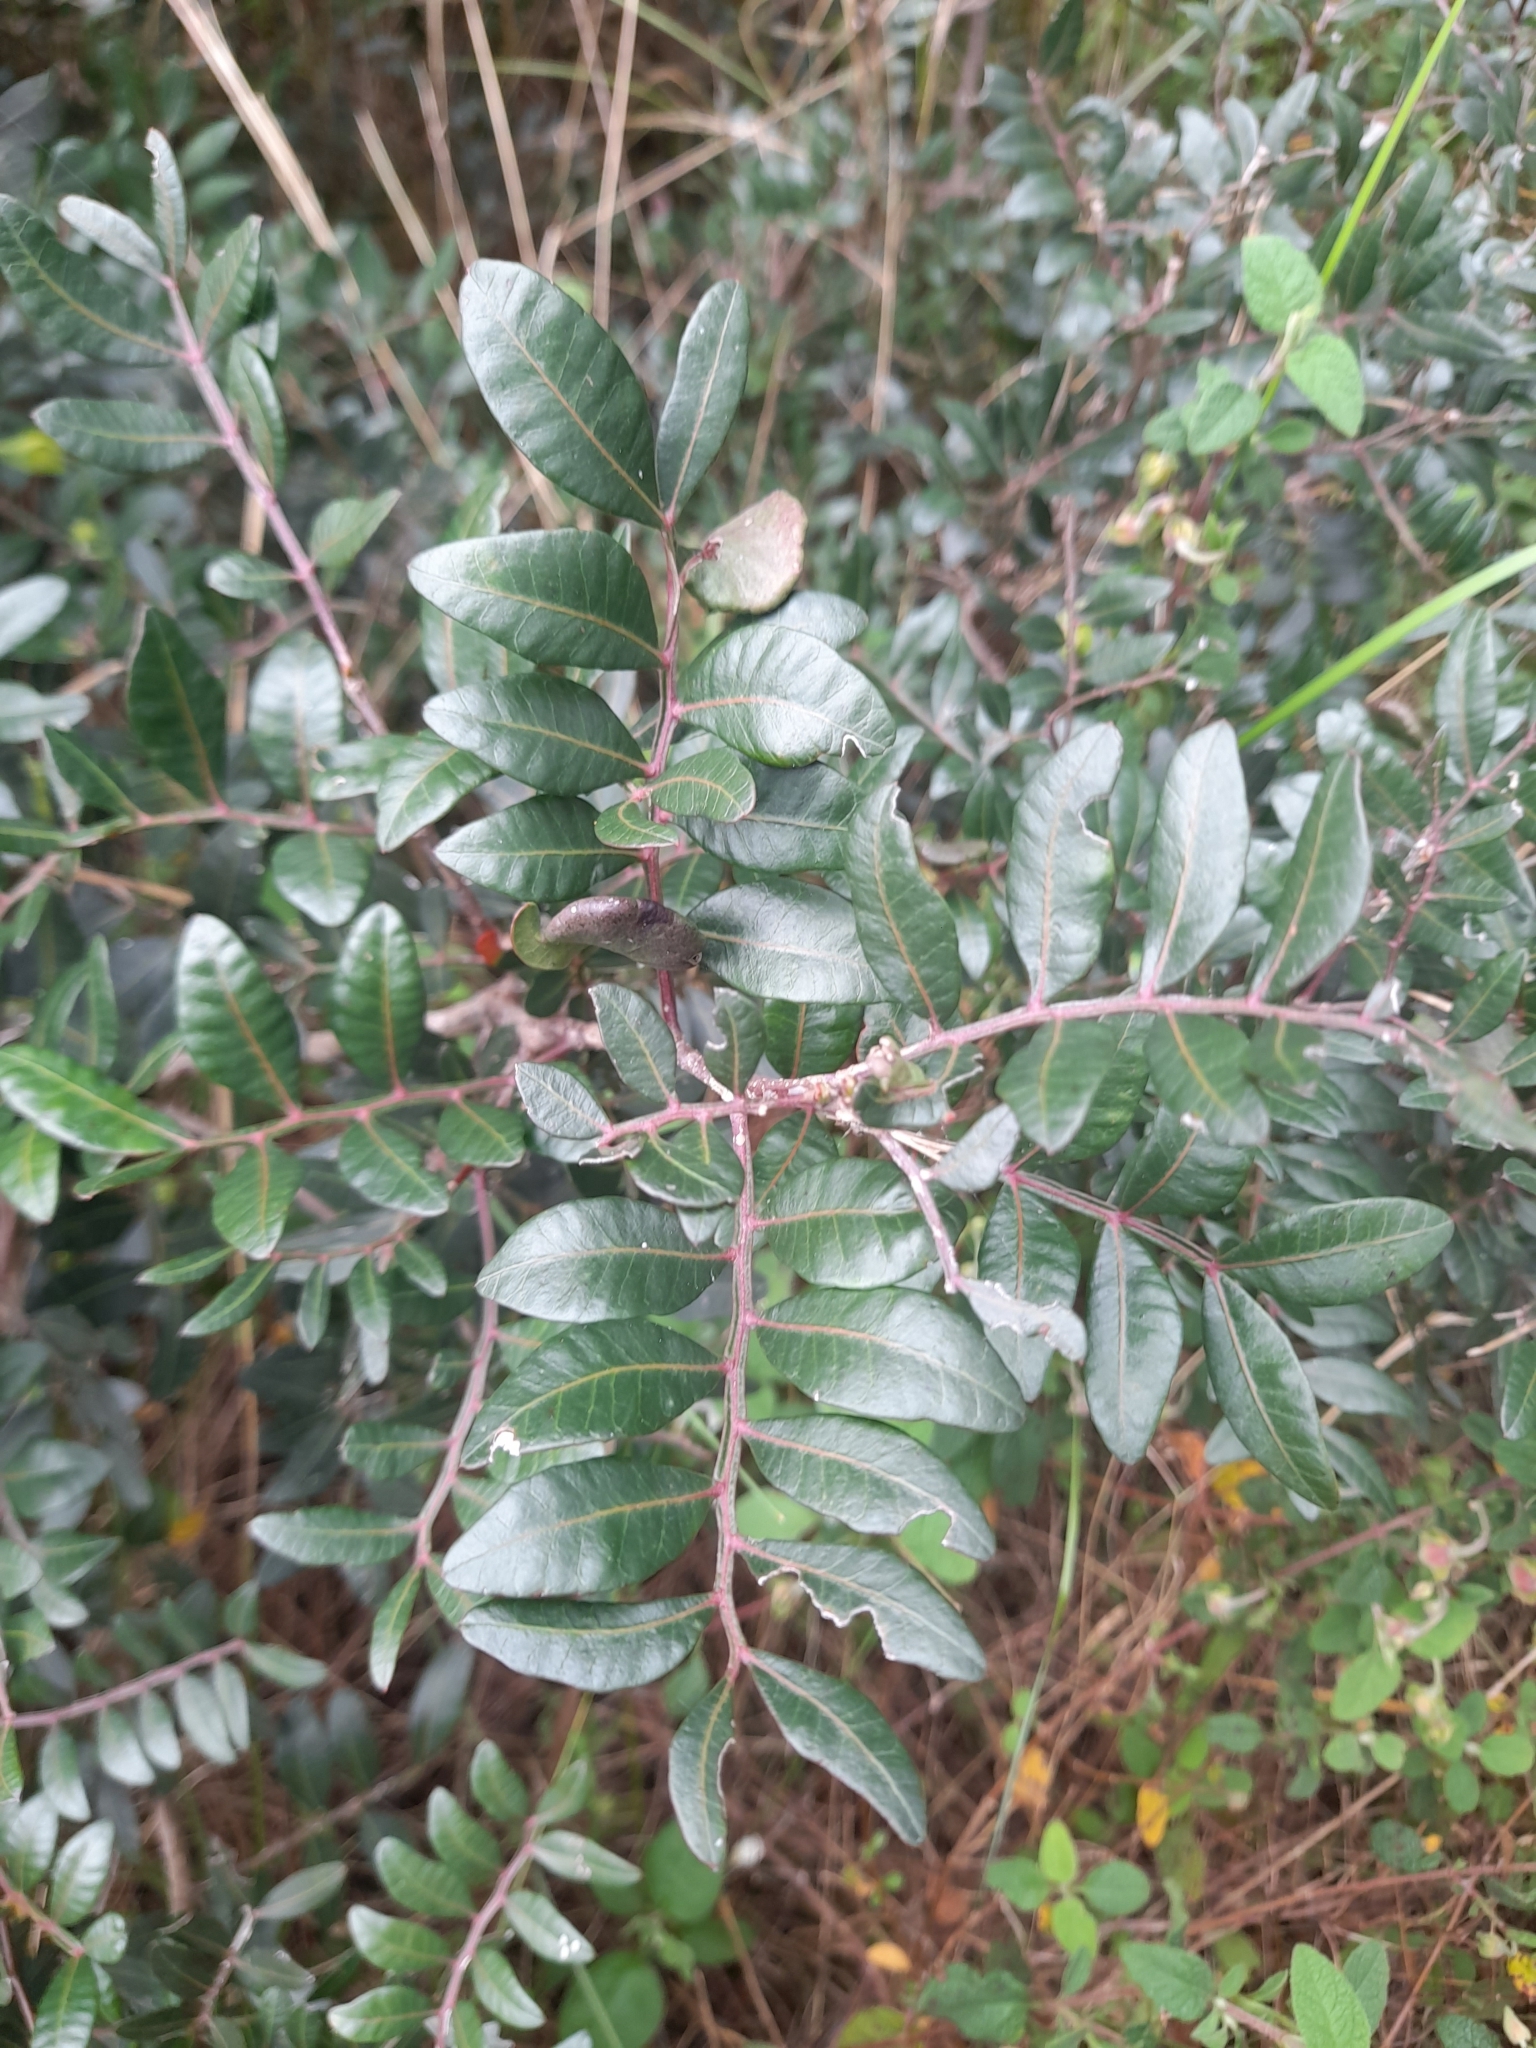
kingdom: Plantae
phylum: Tracheophyta
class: Magnoliopsida
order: Sapindales
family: Anacardiaceae
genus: Pistacia
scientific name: Pistacia lentiscus
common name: Lentisk
